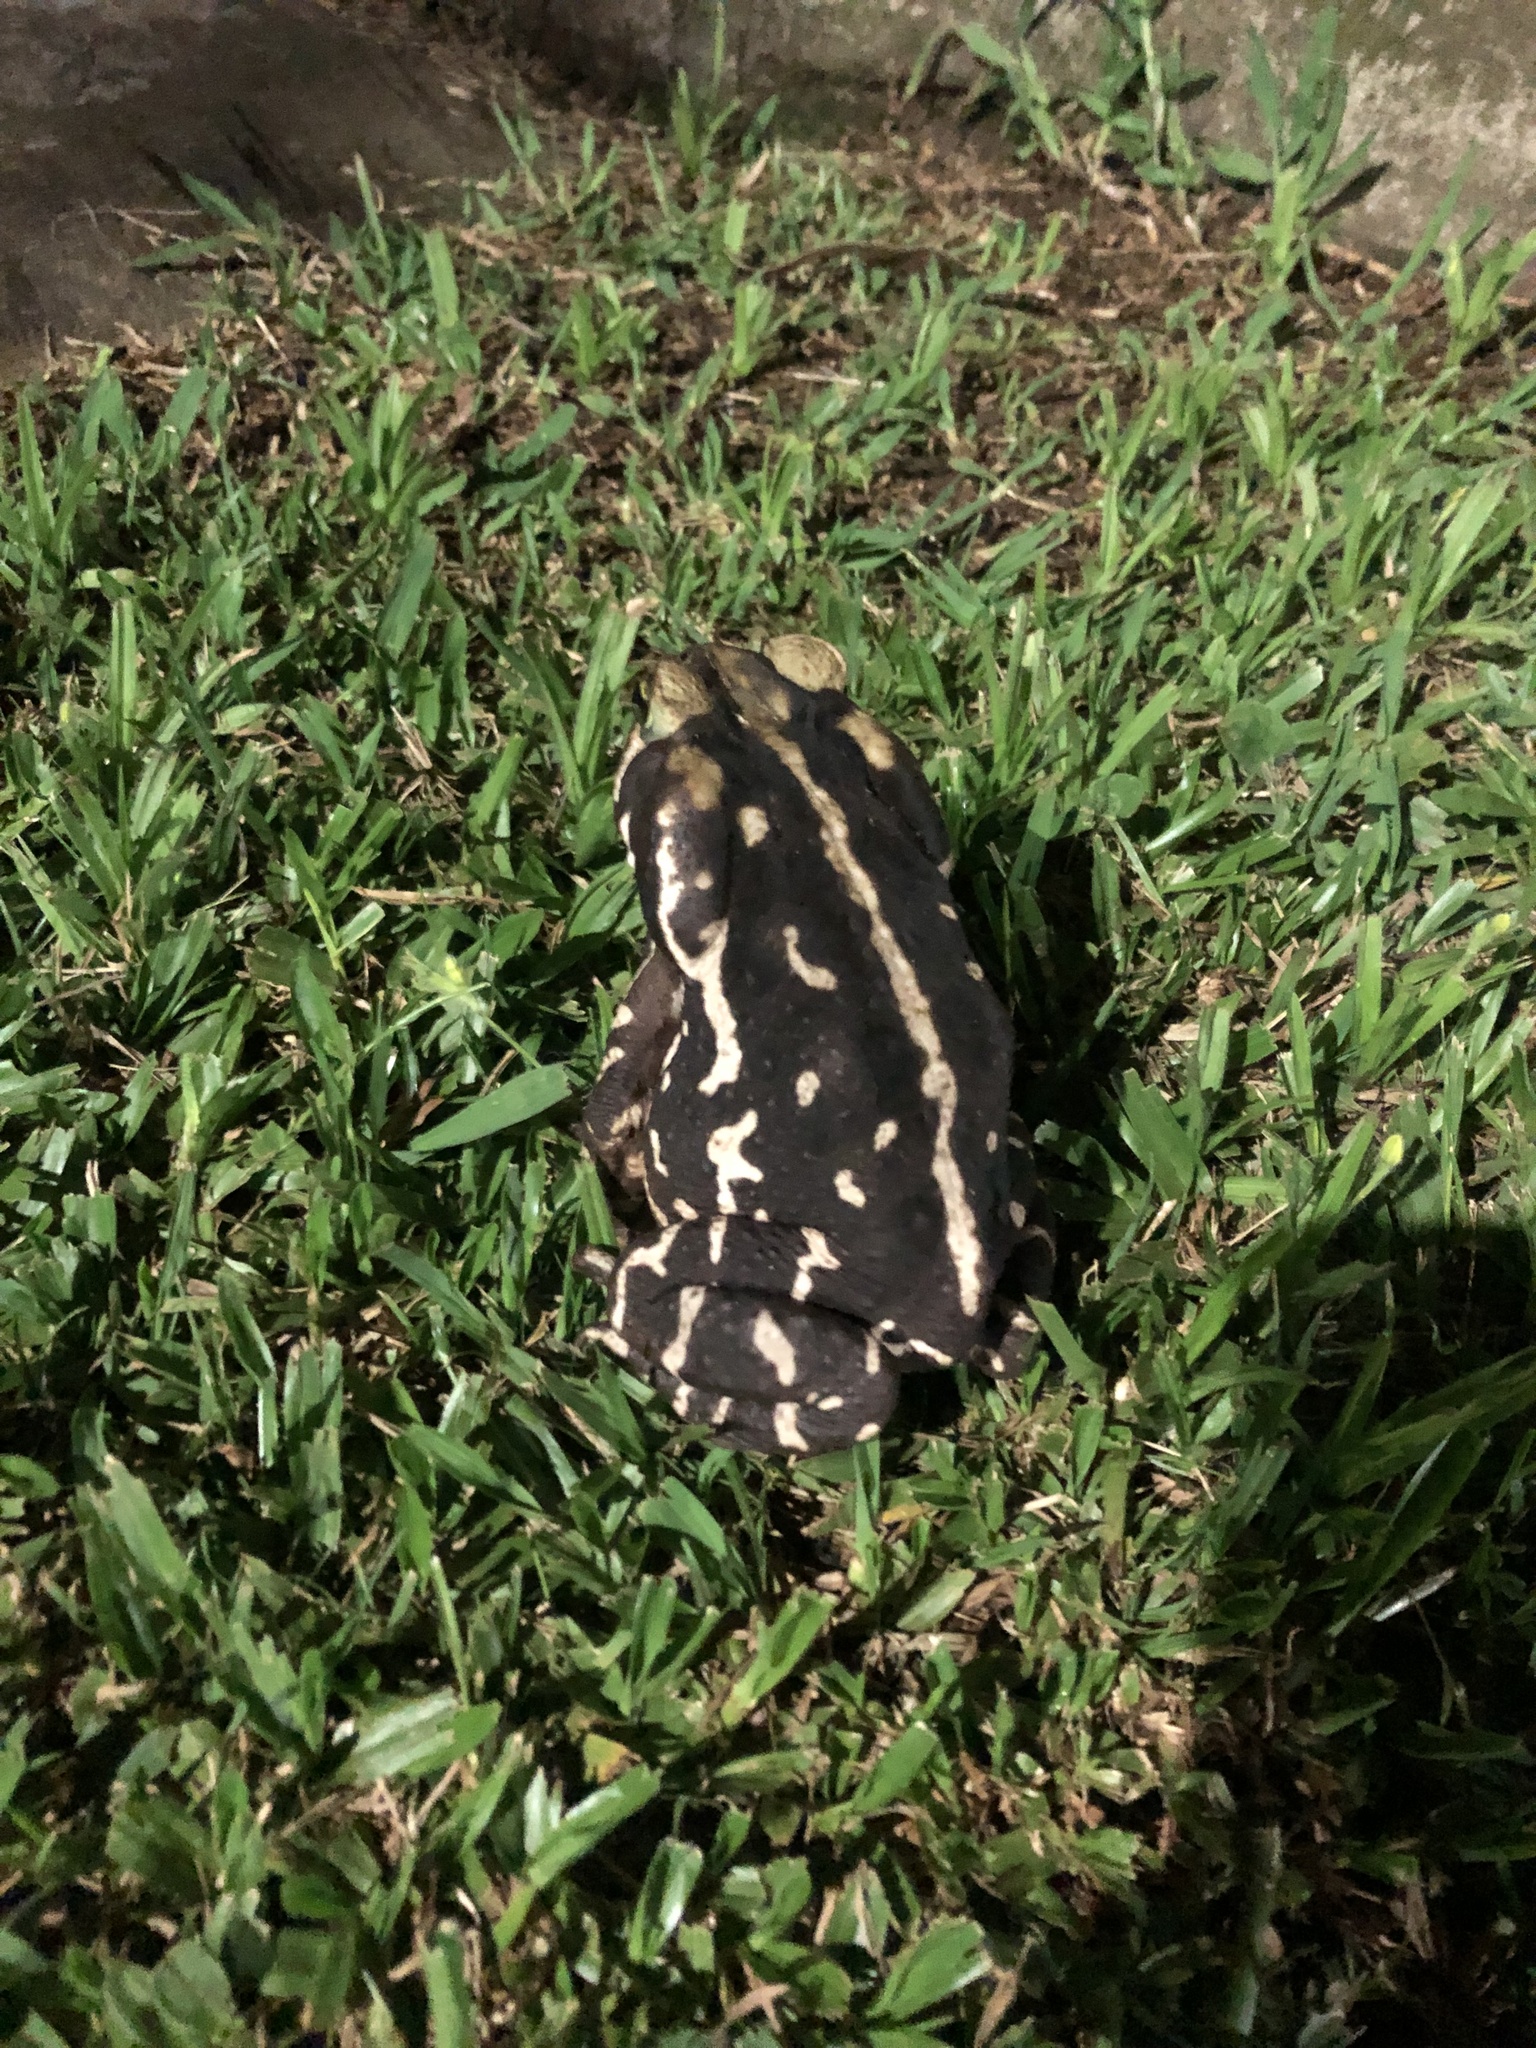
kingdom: Animalia
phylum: Chordata
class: Amphibia
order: Anura
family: Bufonidae
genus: Rhinella
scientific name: Rhinella icterica
